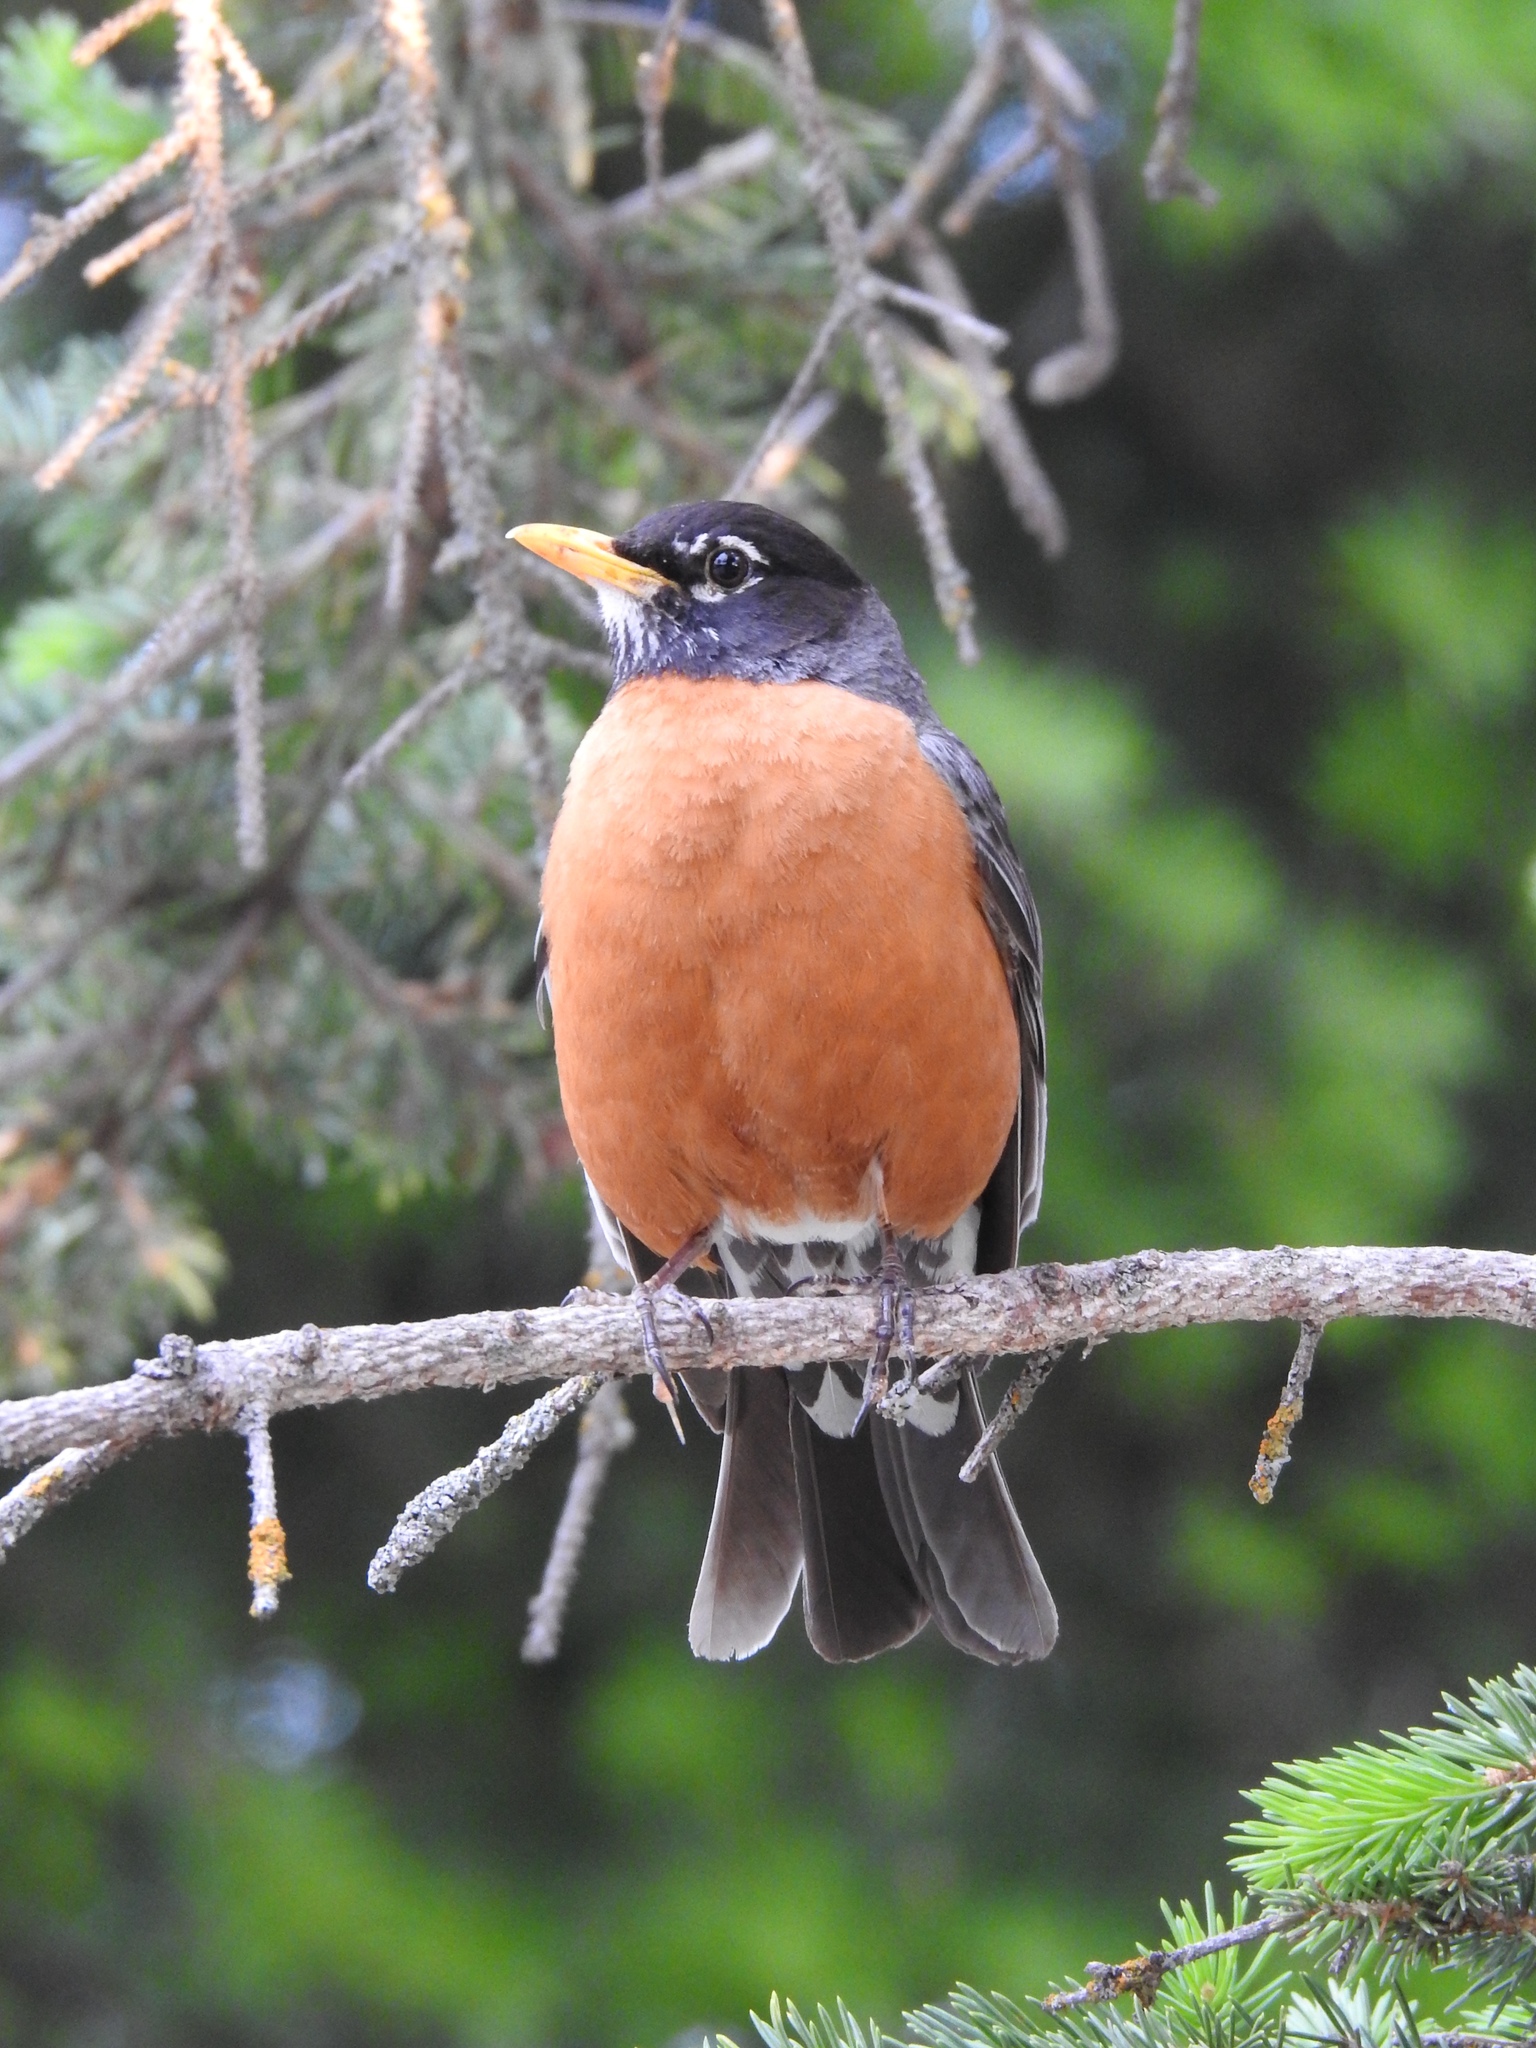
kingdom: Animalia
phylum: Chordata
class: Aves
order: Passeriformes
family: Turdidae
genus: Turdus
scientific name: Turdus migratorius
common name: American robin
